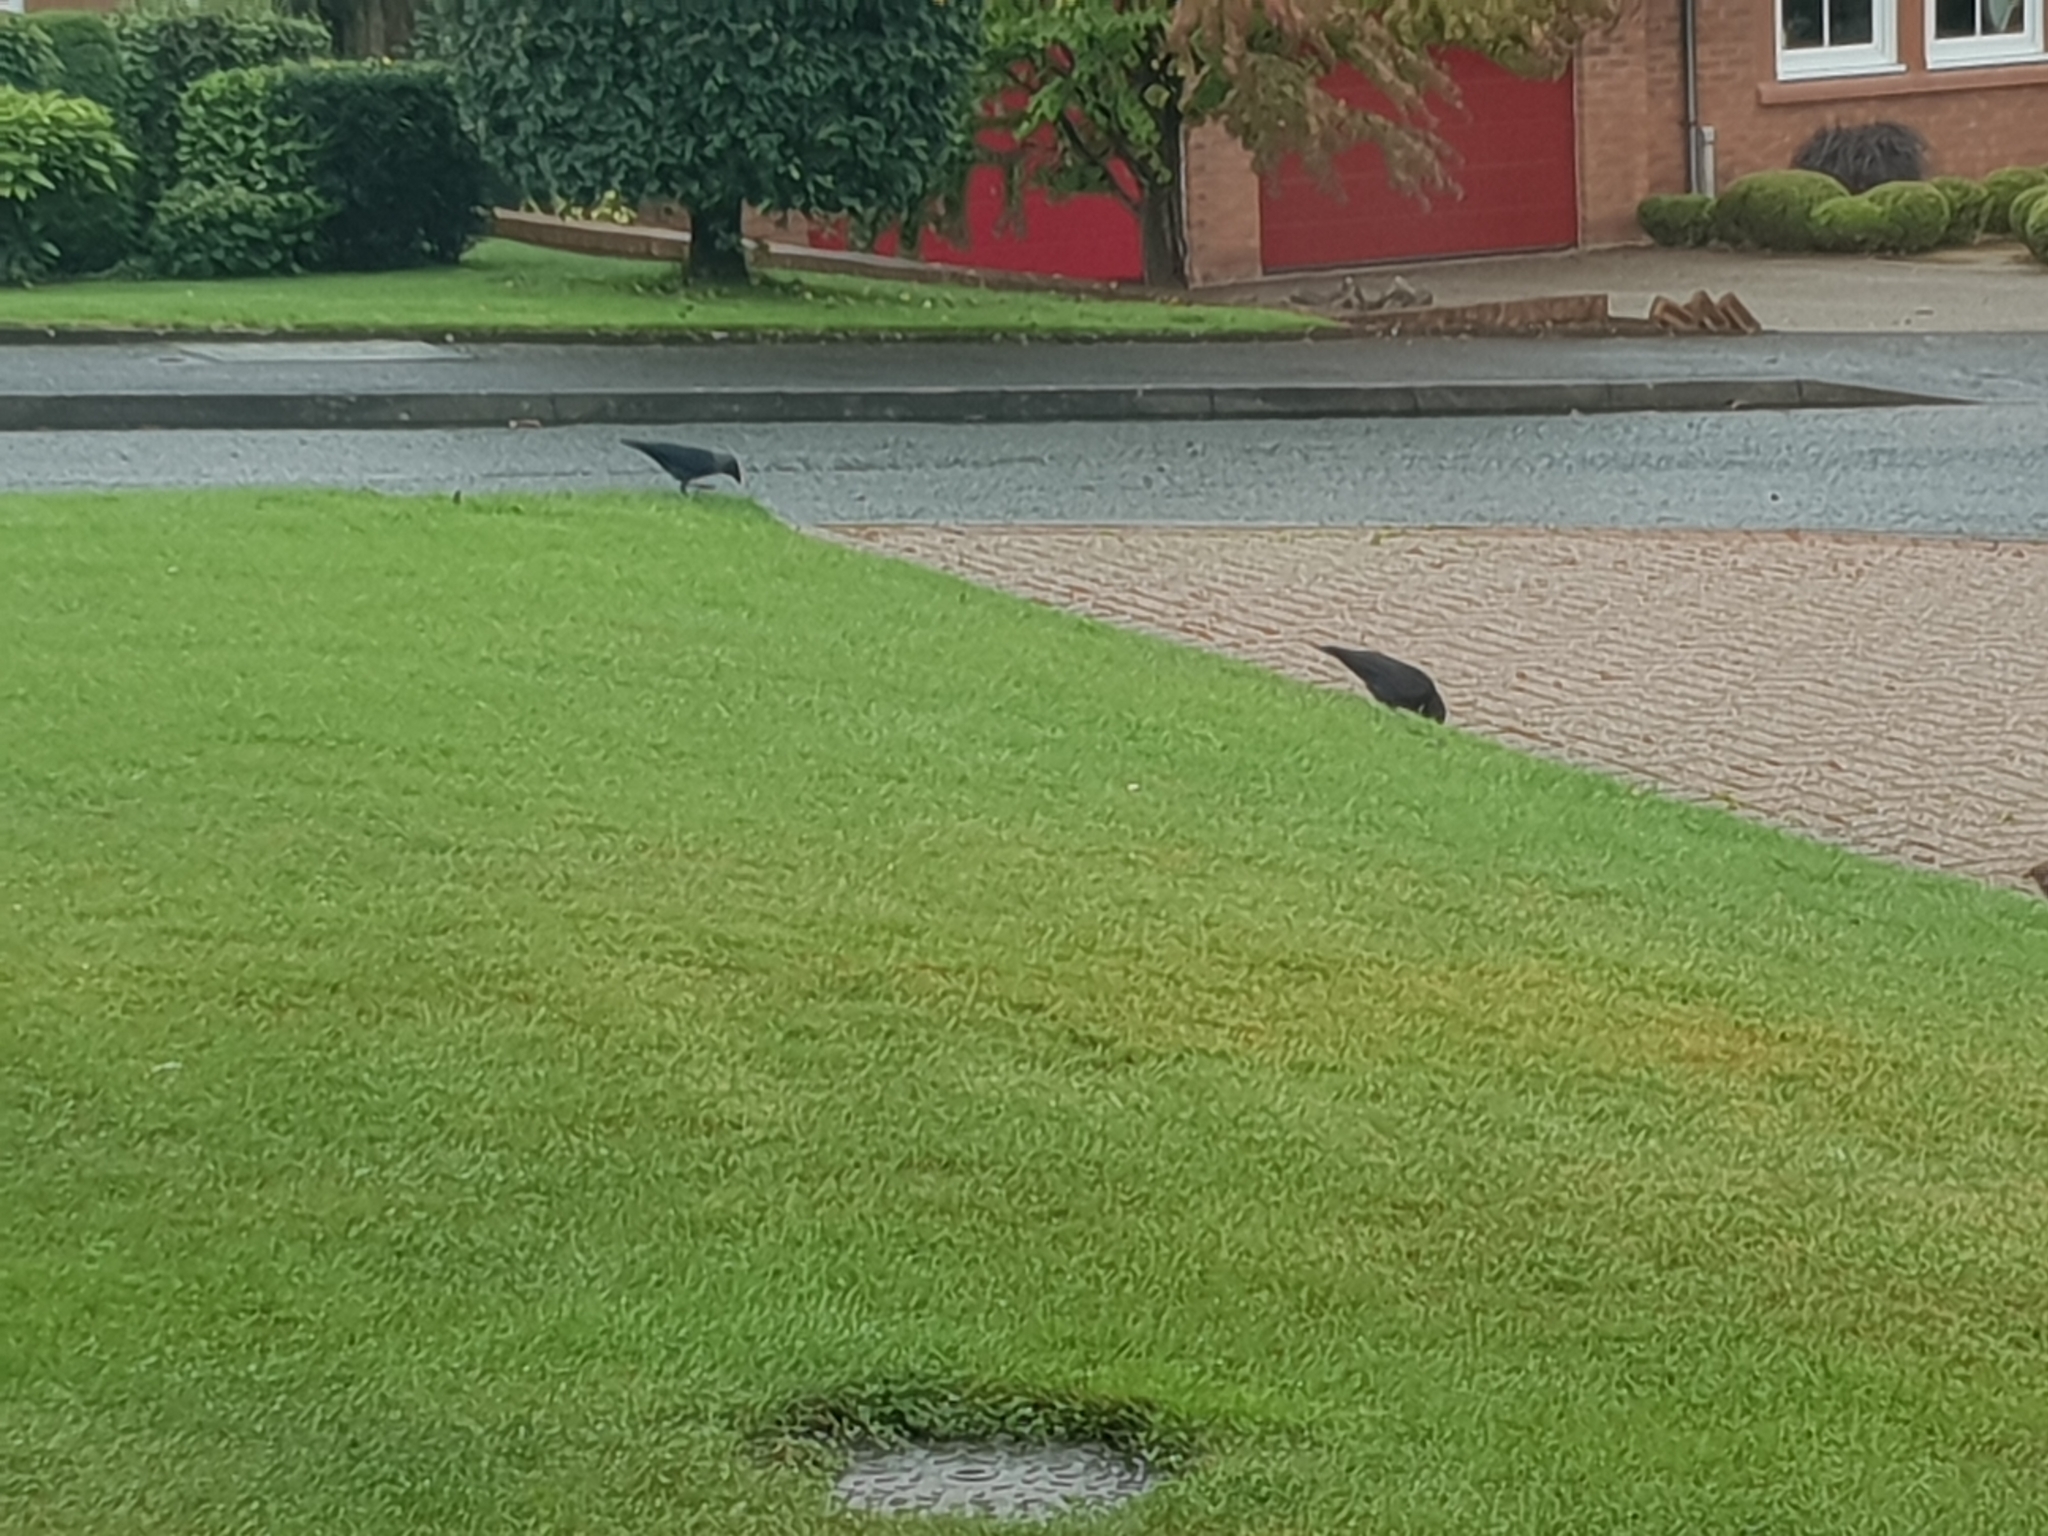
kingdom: Animalia
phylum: Chordata
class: Aves
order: Passeriformes
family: Corvidae
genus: Coloeus
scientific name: Coloeus monedula
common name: Western jackdaw
